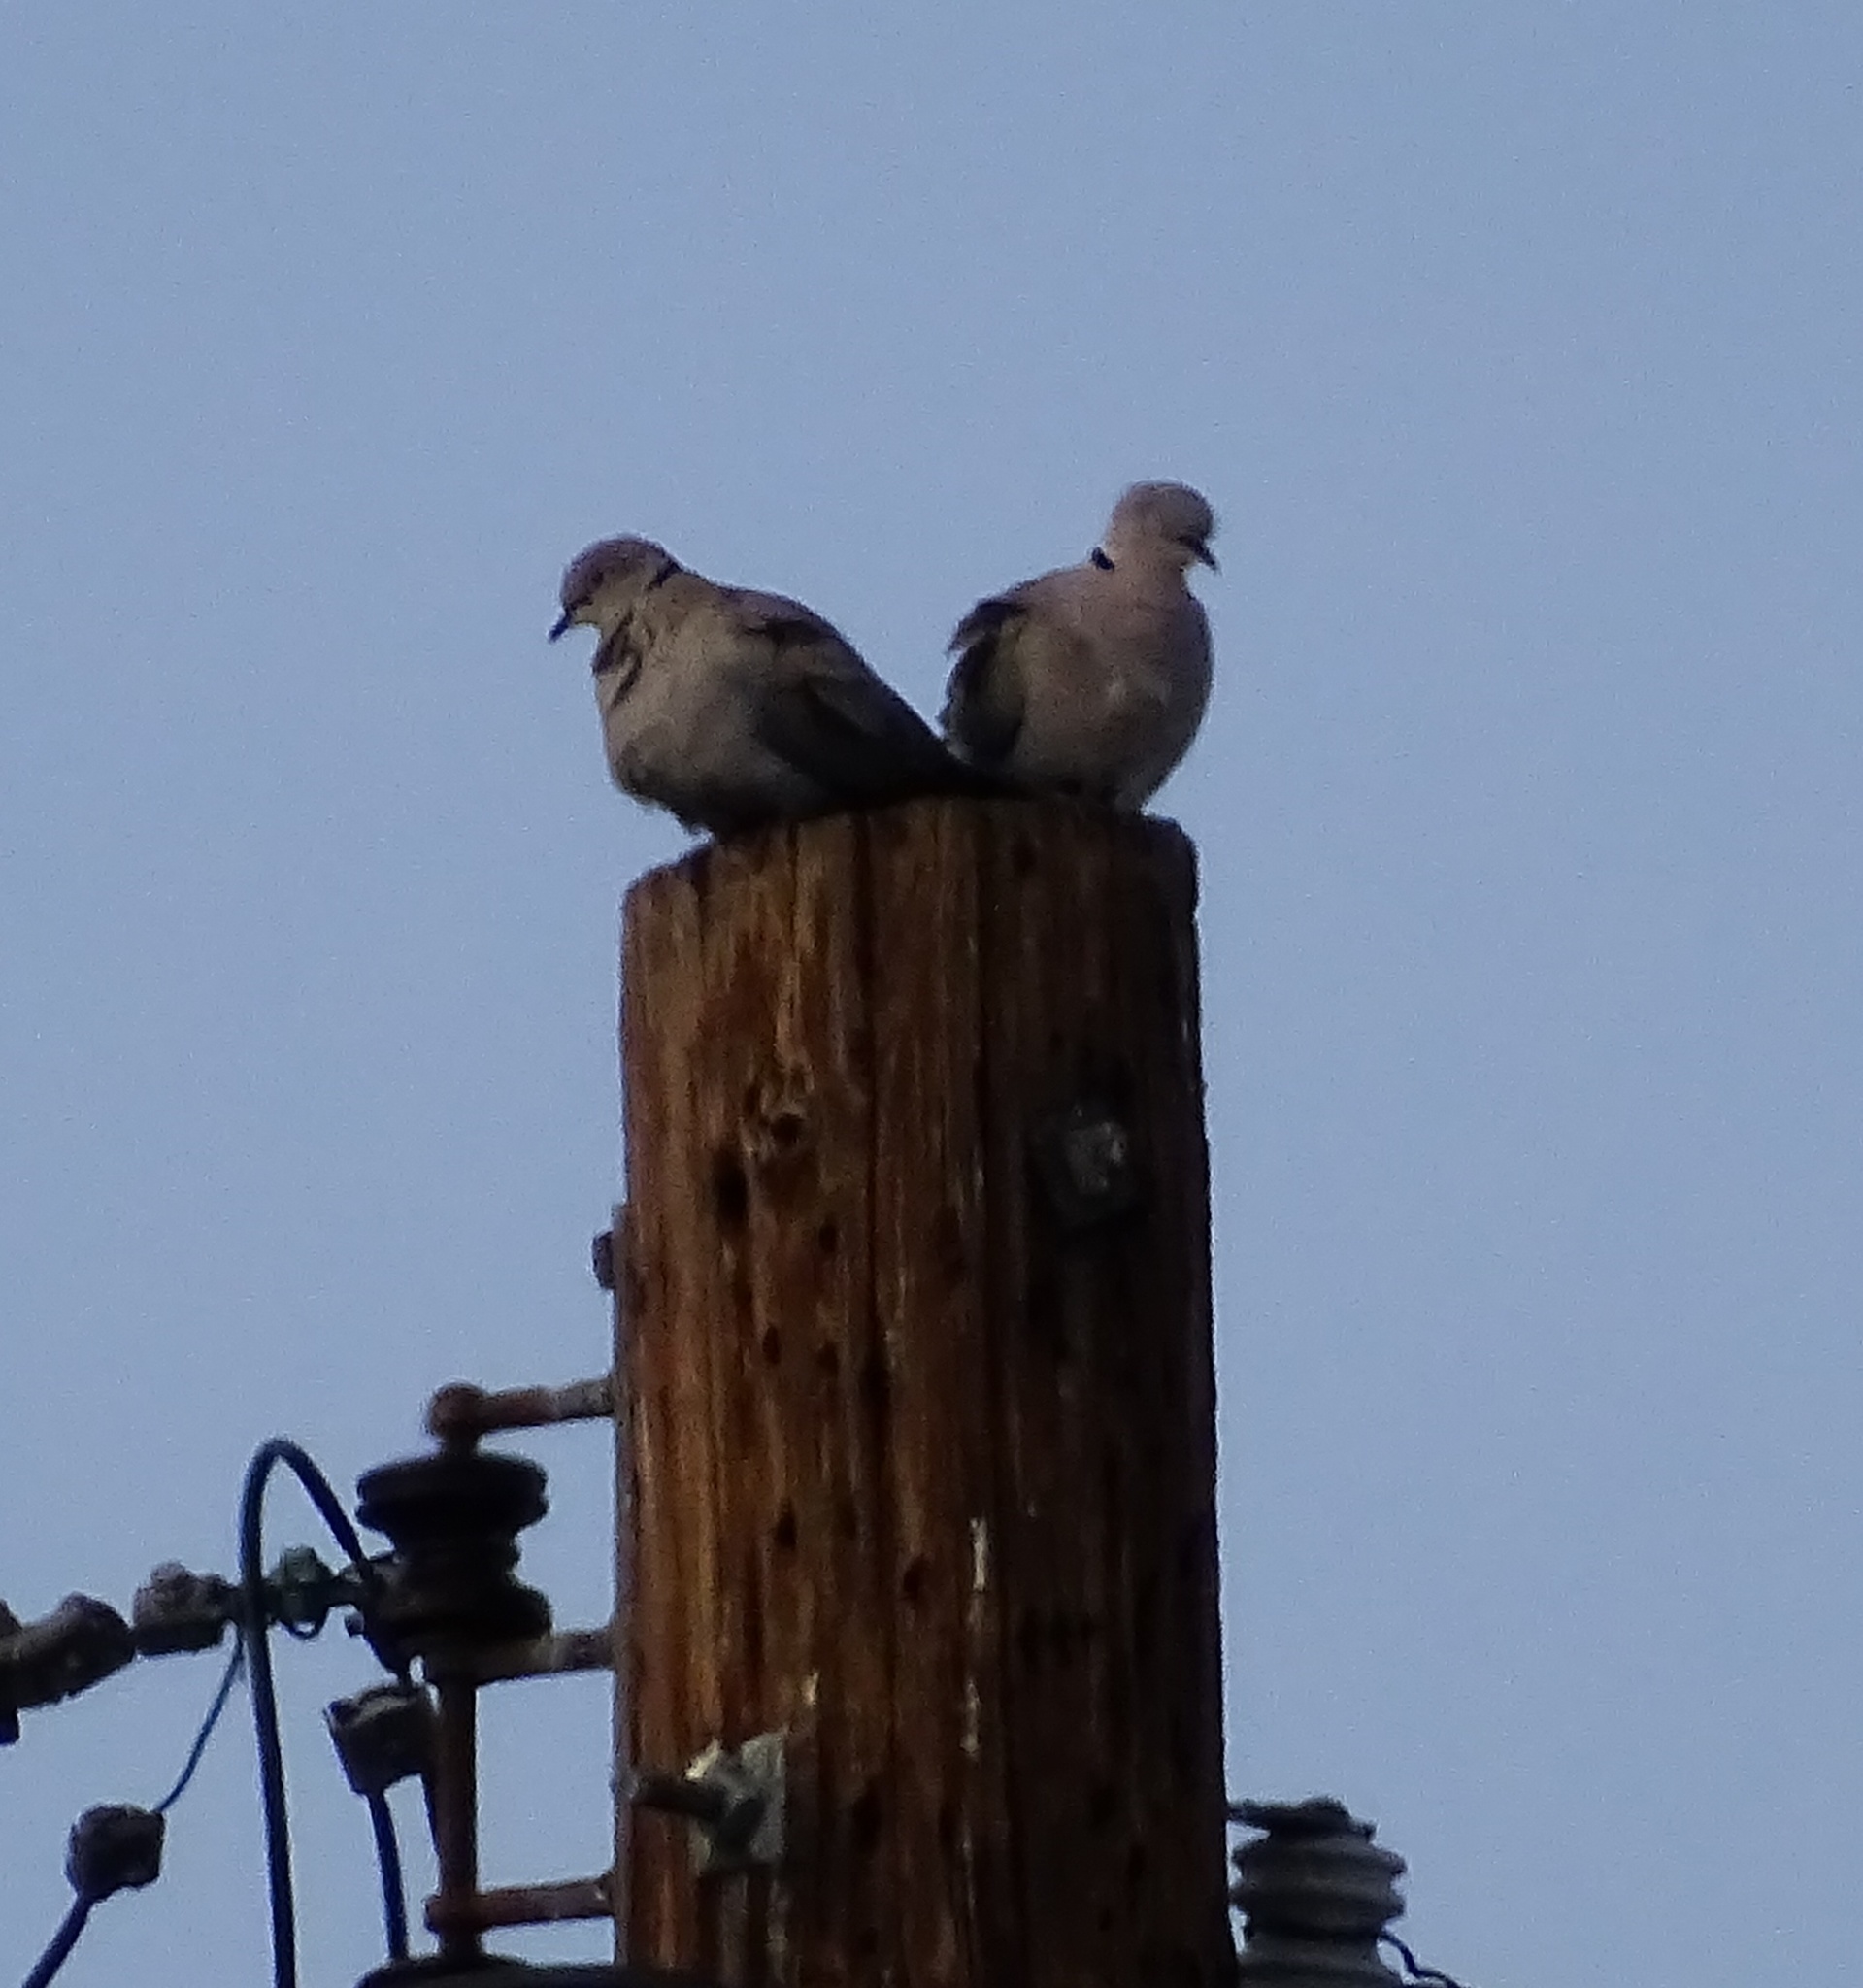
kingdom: Animalia
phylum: Chordata
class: Aves
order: Columbiformes
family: Columbidae
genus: Streptopelia
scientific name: Streptopelia decaocto
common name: Eurasian collared dove
